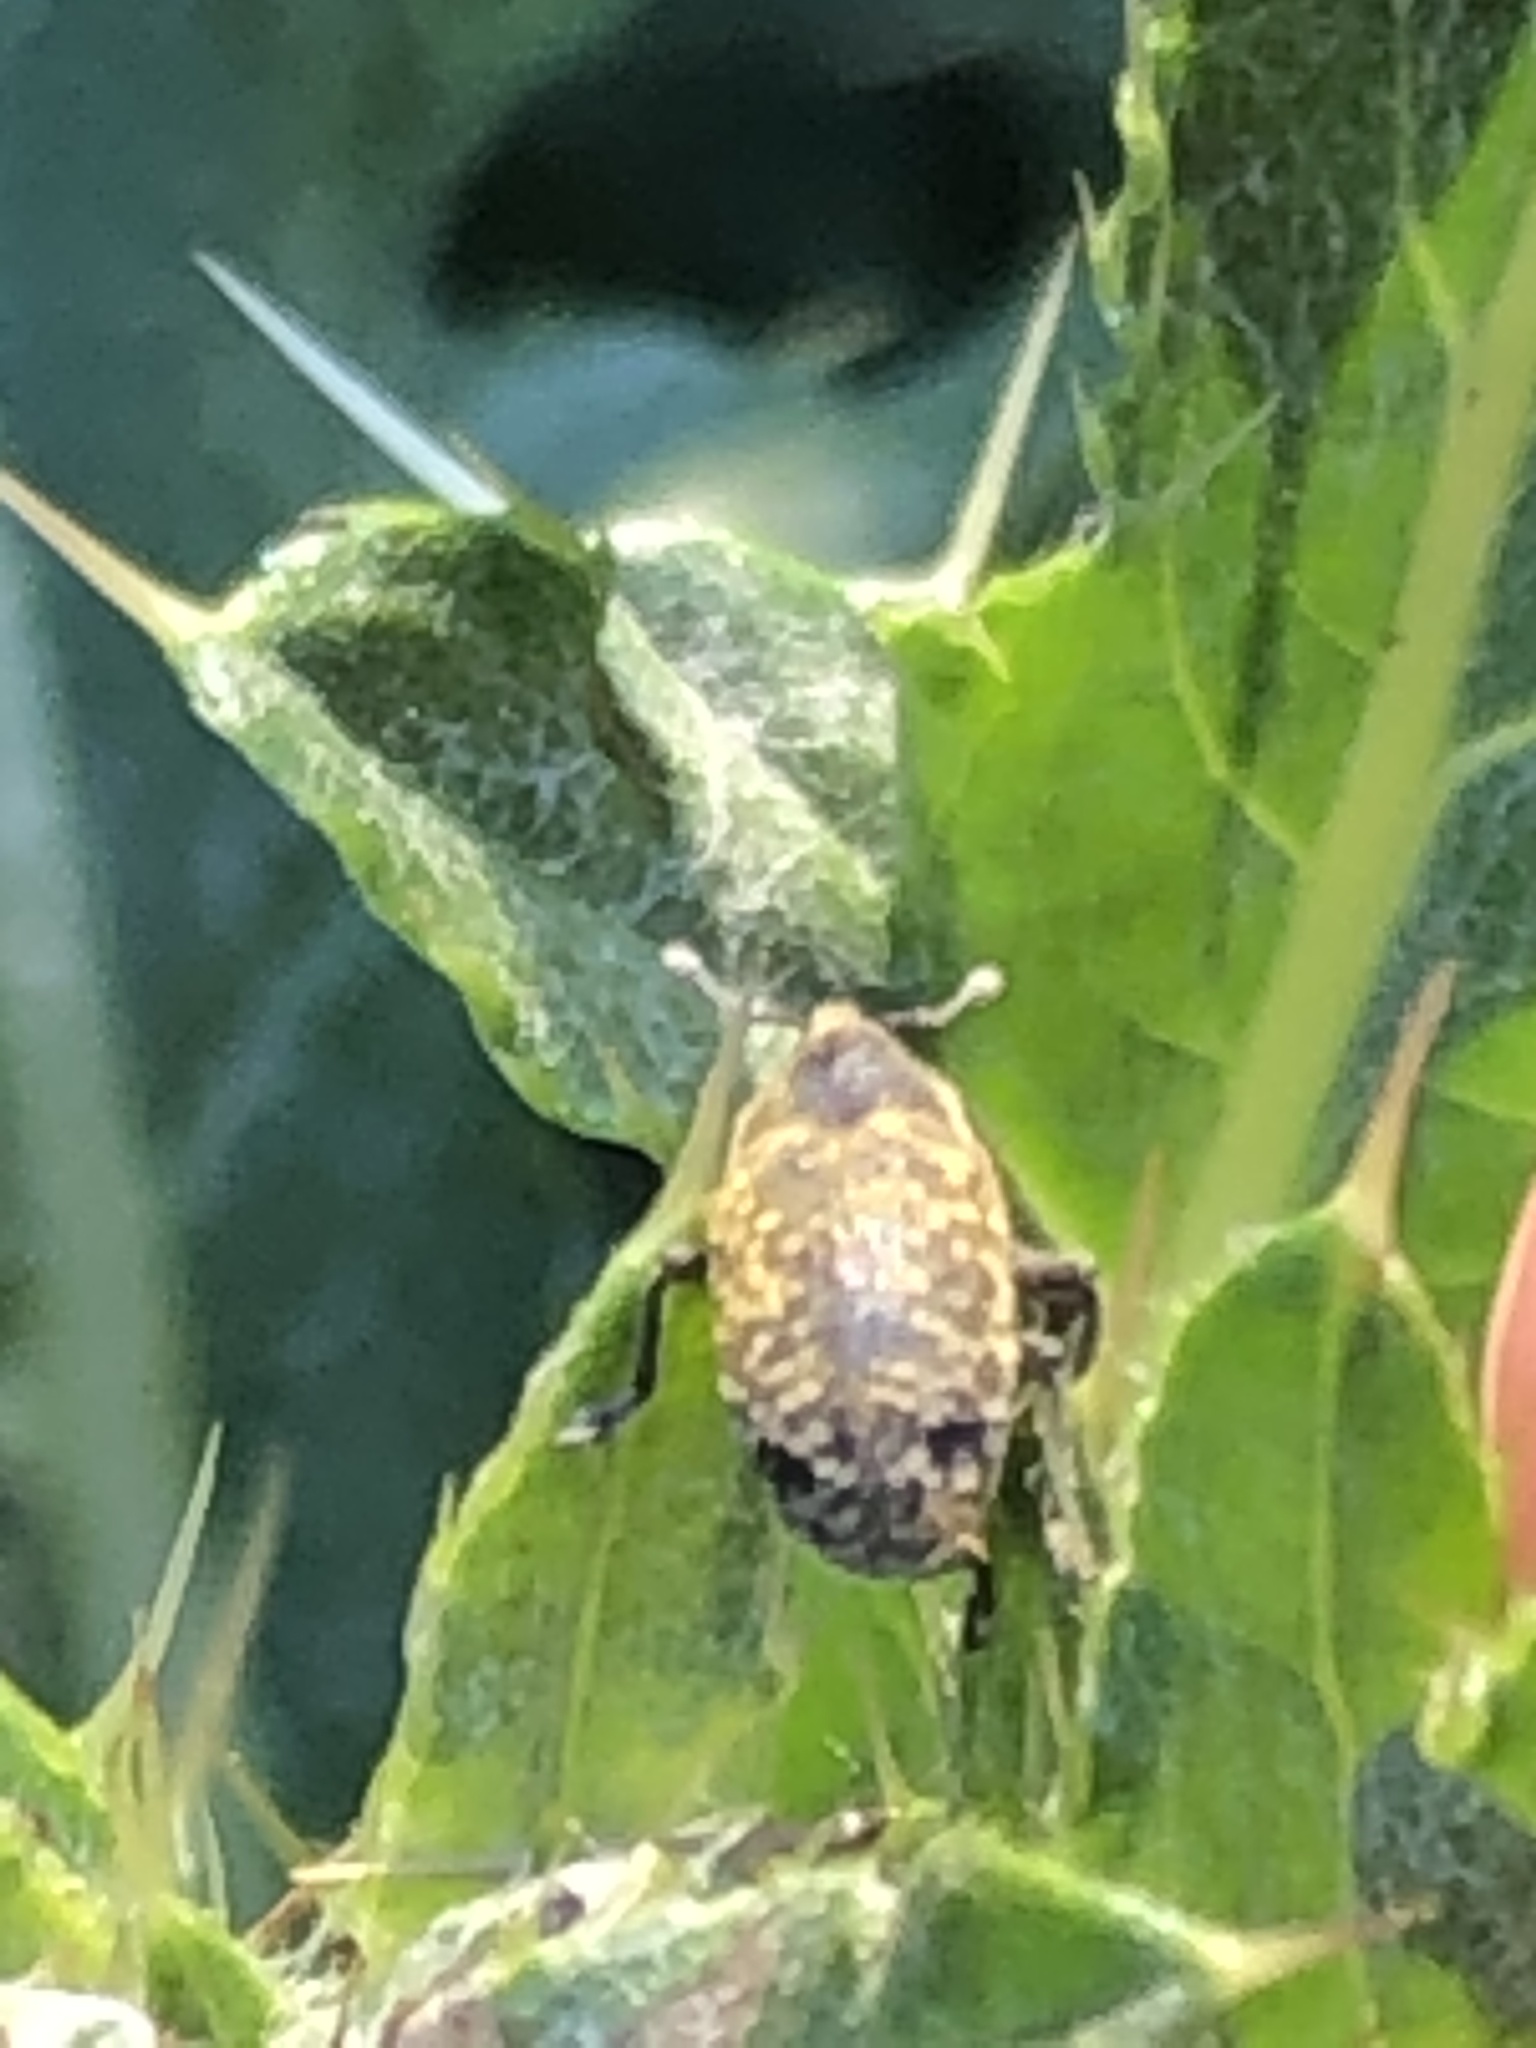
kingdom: Animalia
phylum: Arthropoda
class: Insecta
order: Coleoptera
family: Curculionidae
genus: Larinus
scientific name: Larinus carlinae
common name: Weevil
